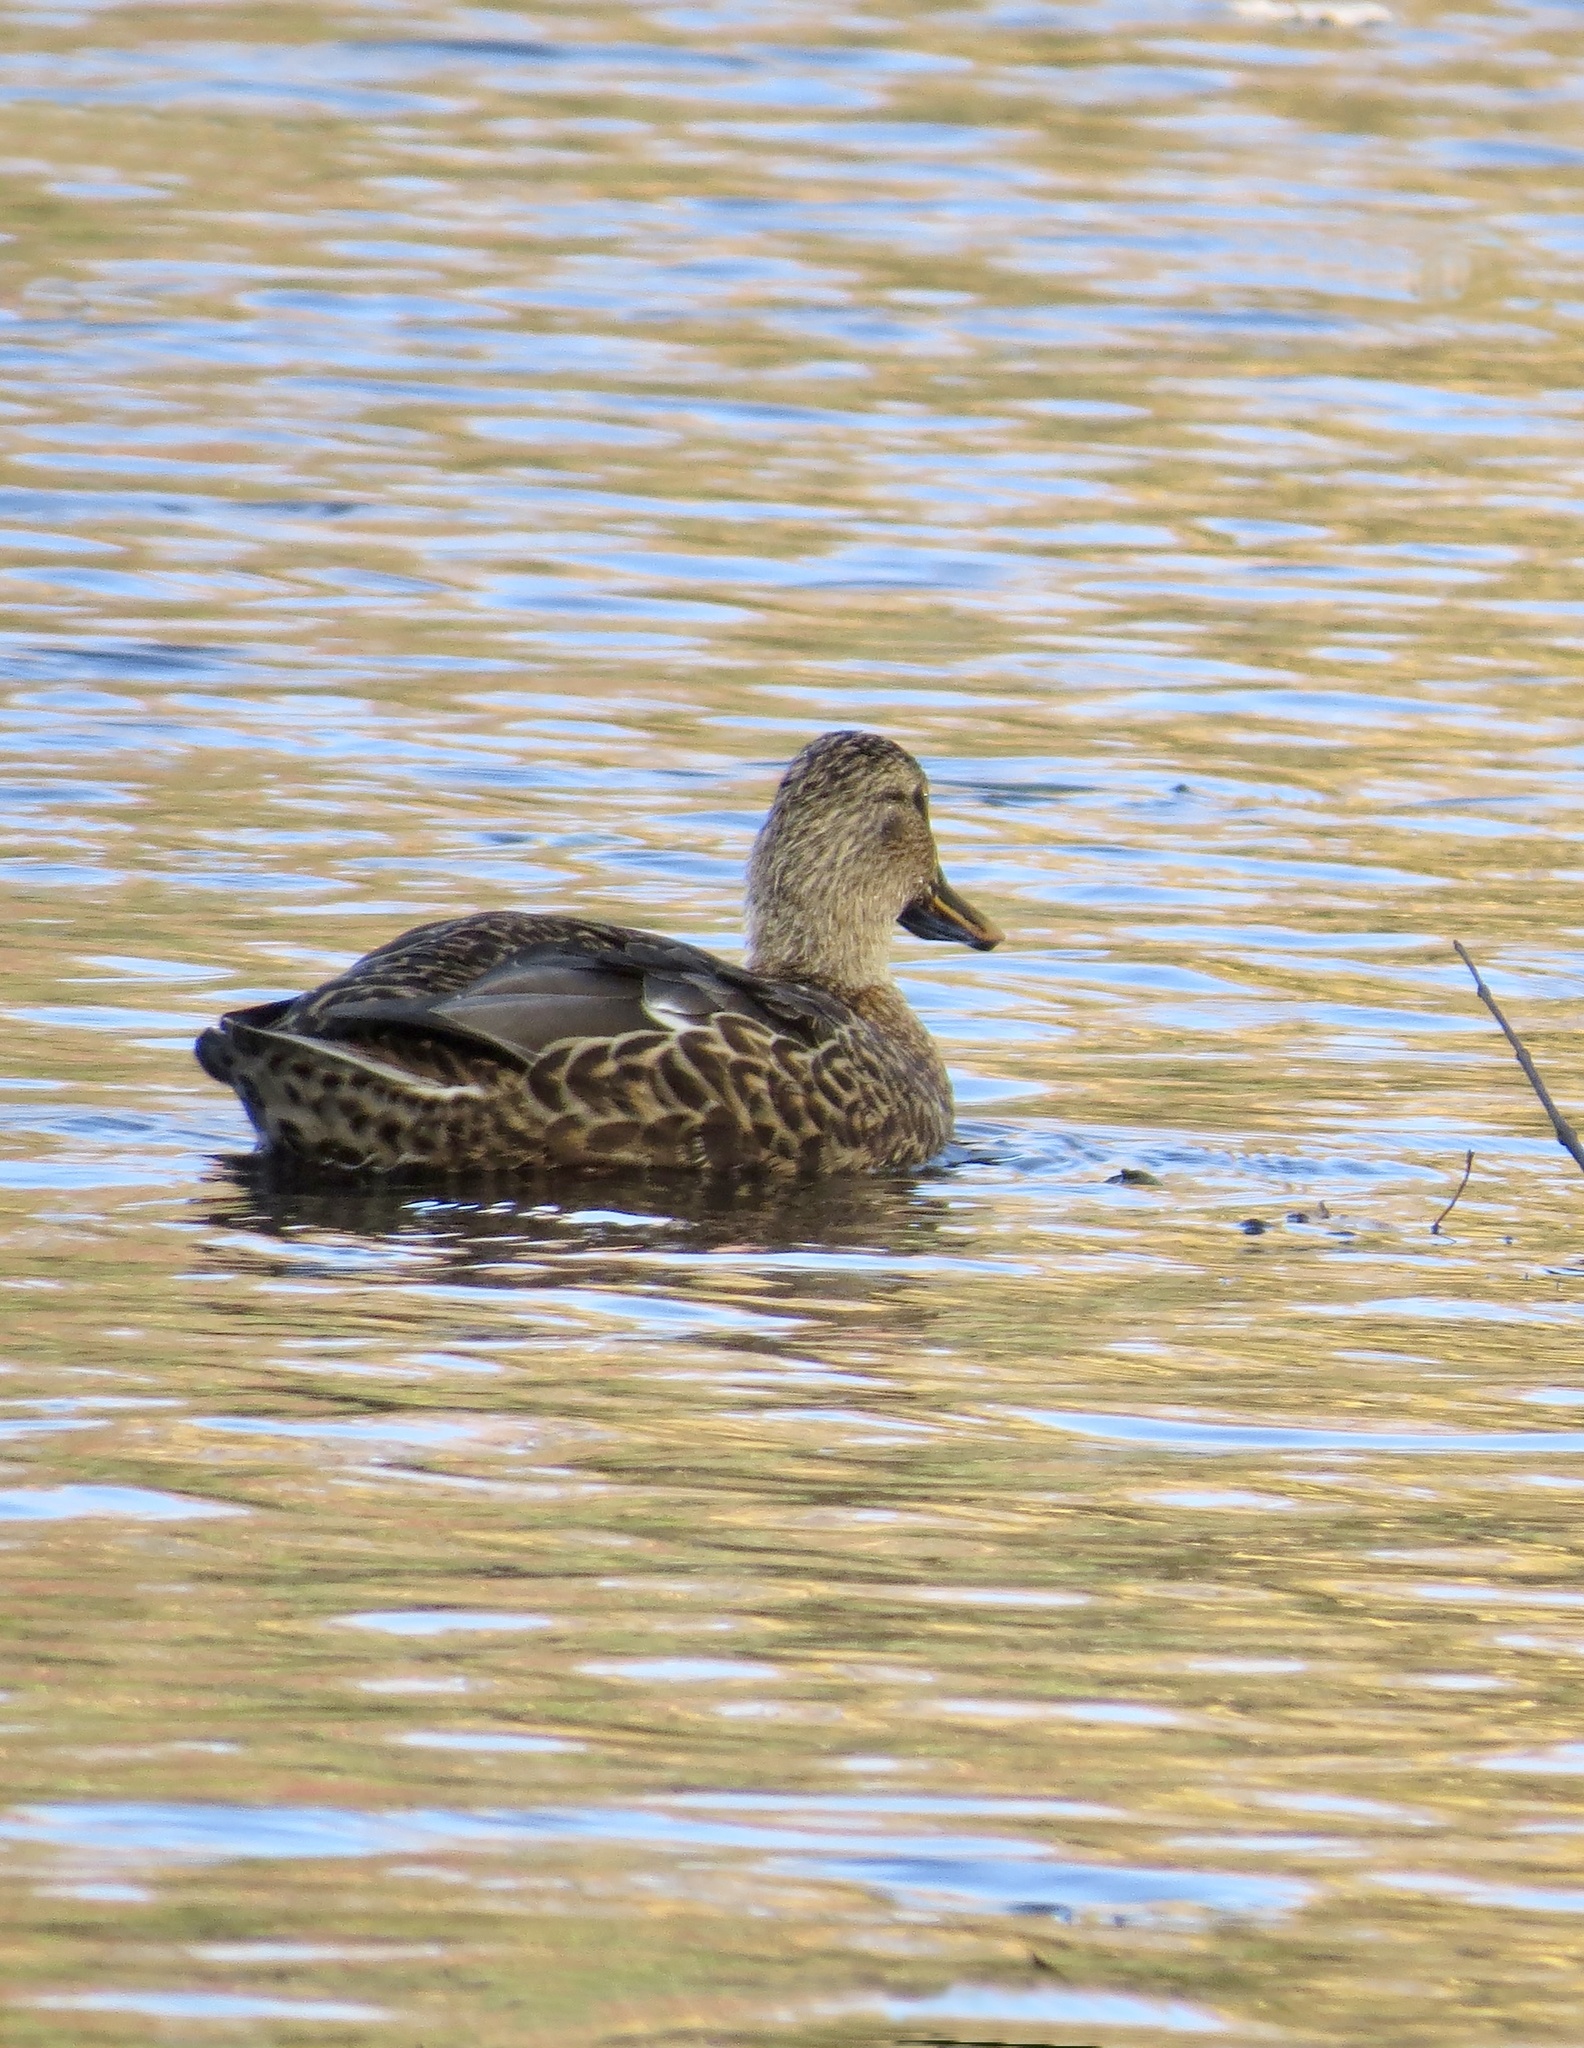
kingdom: Animalia
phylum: Chordata
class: Aves
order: Anseriformes
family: Anatidae
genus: Anas
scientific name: Anas platyrhynchos
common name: Mallard
